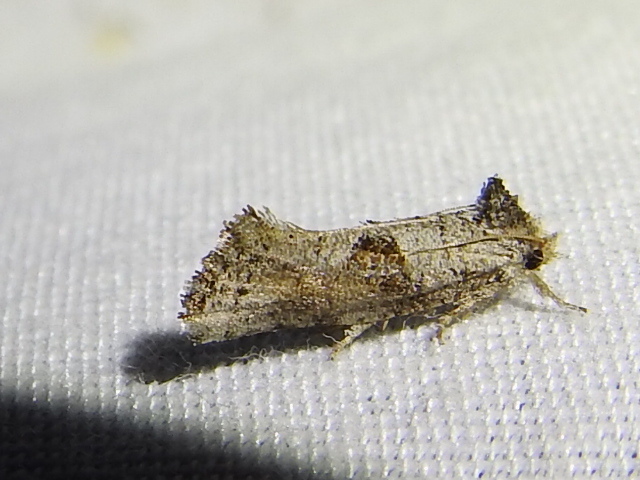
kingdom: Animalia
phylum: Arthropoda
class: Insecta
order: Lepidoptera
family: Tineidae
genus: Acrolophus
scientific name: Acrolophus piger
